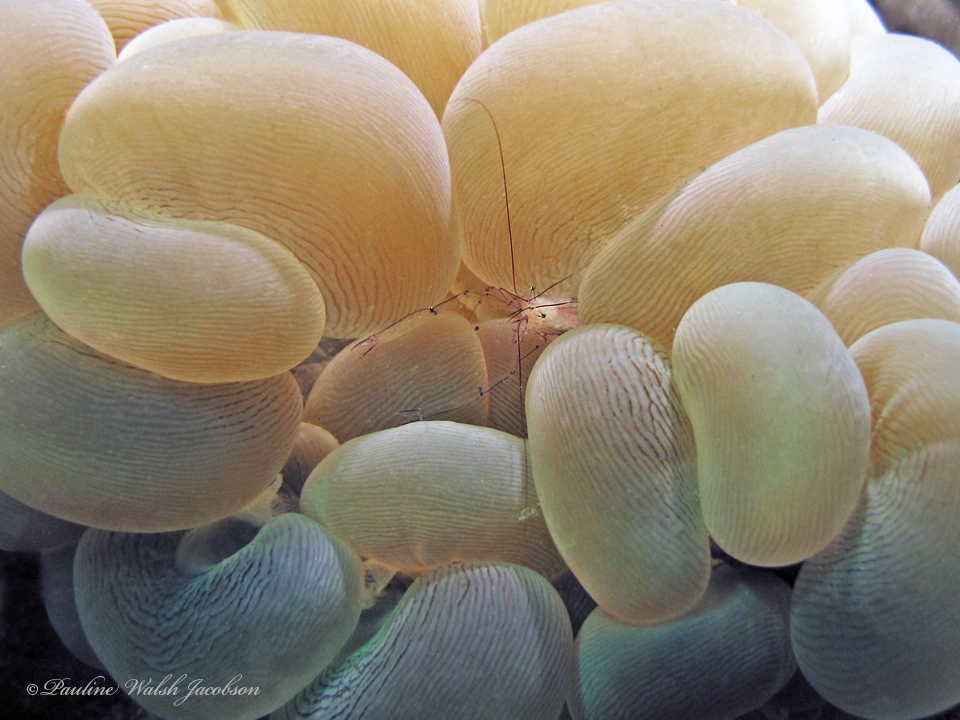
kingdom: Animalia
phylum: Arthropoda
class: Malacostraca
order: Decapoda
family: Palaemonidae
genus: Vir
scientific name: Vir philippinensis
